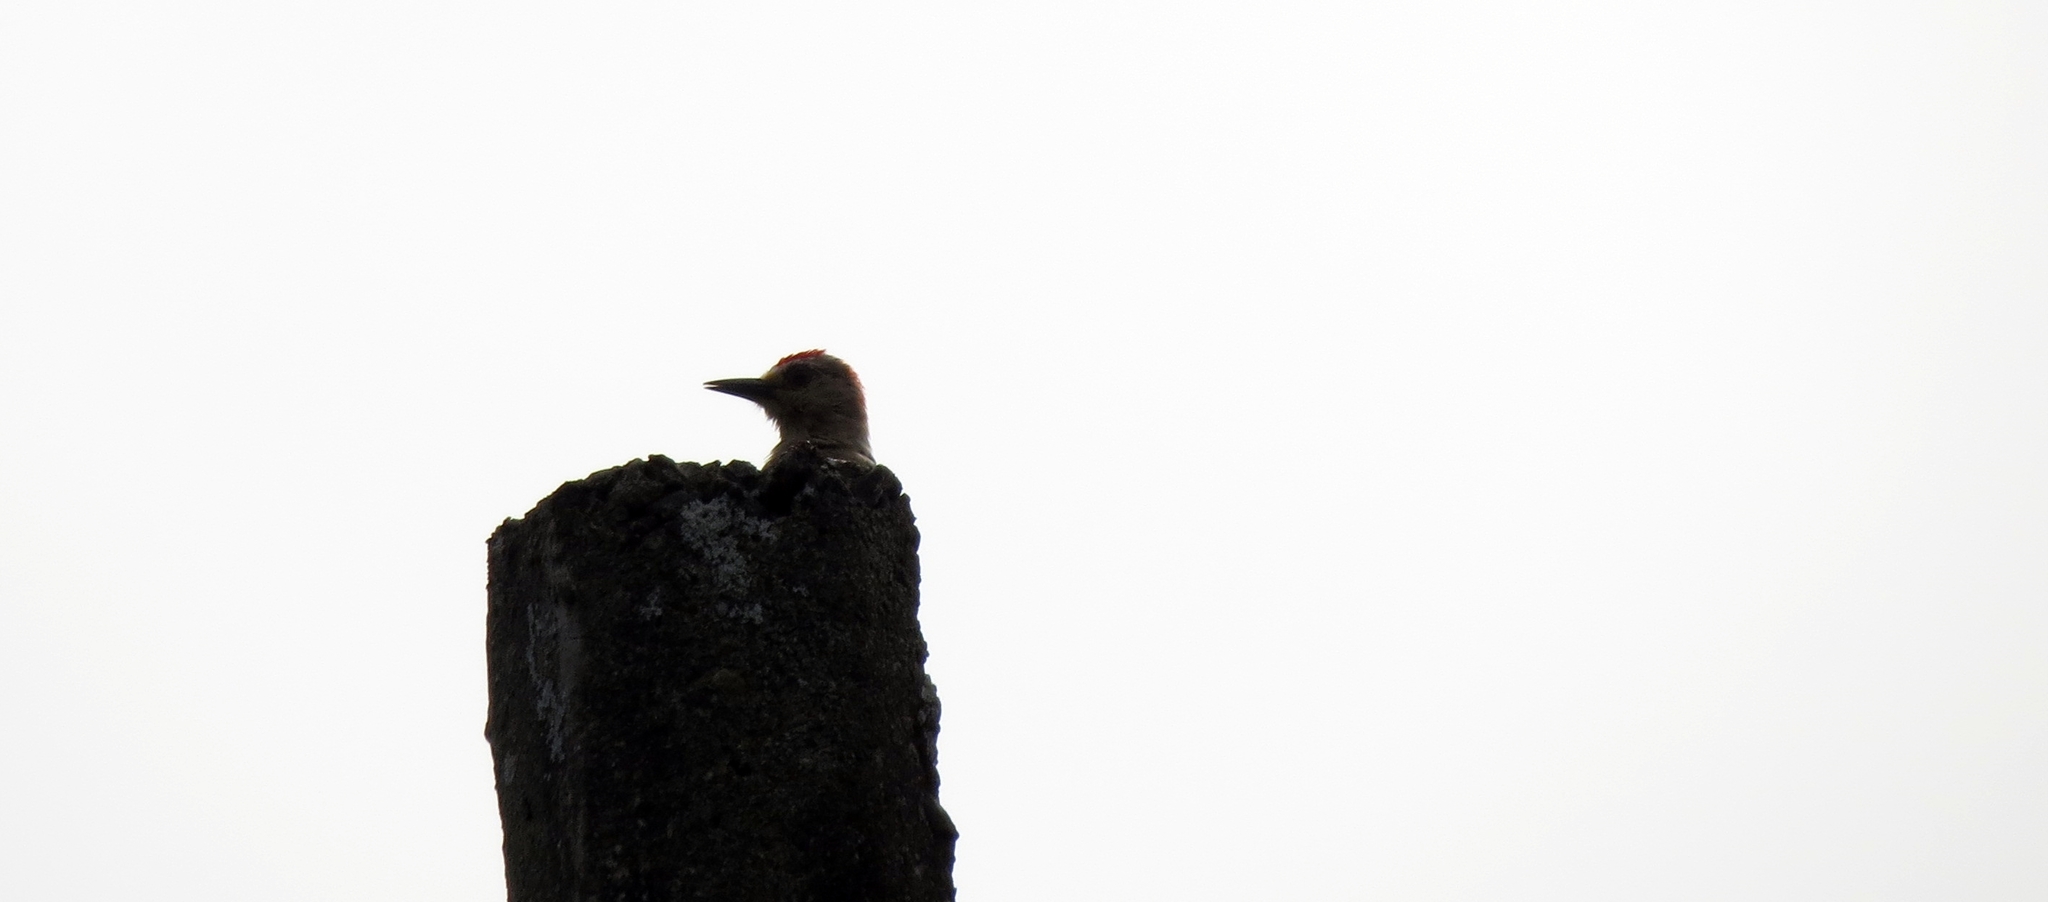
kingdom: Animalia
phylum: Chordata
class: Aves
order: Piciformes
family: Picidae
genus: Melanerpes
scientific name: Melanerpes rubricapillus
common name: Red-crowned woodpecker
